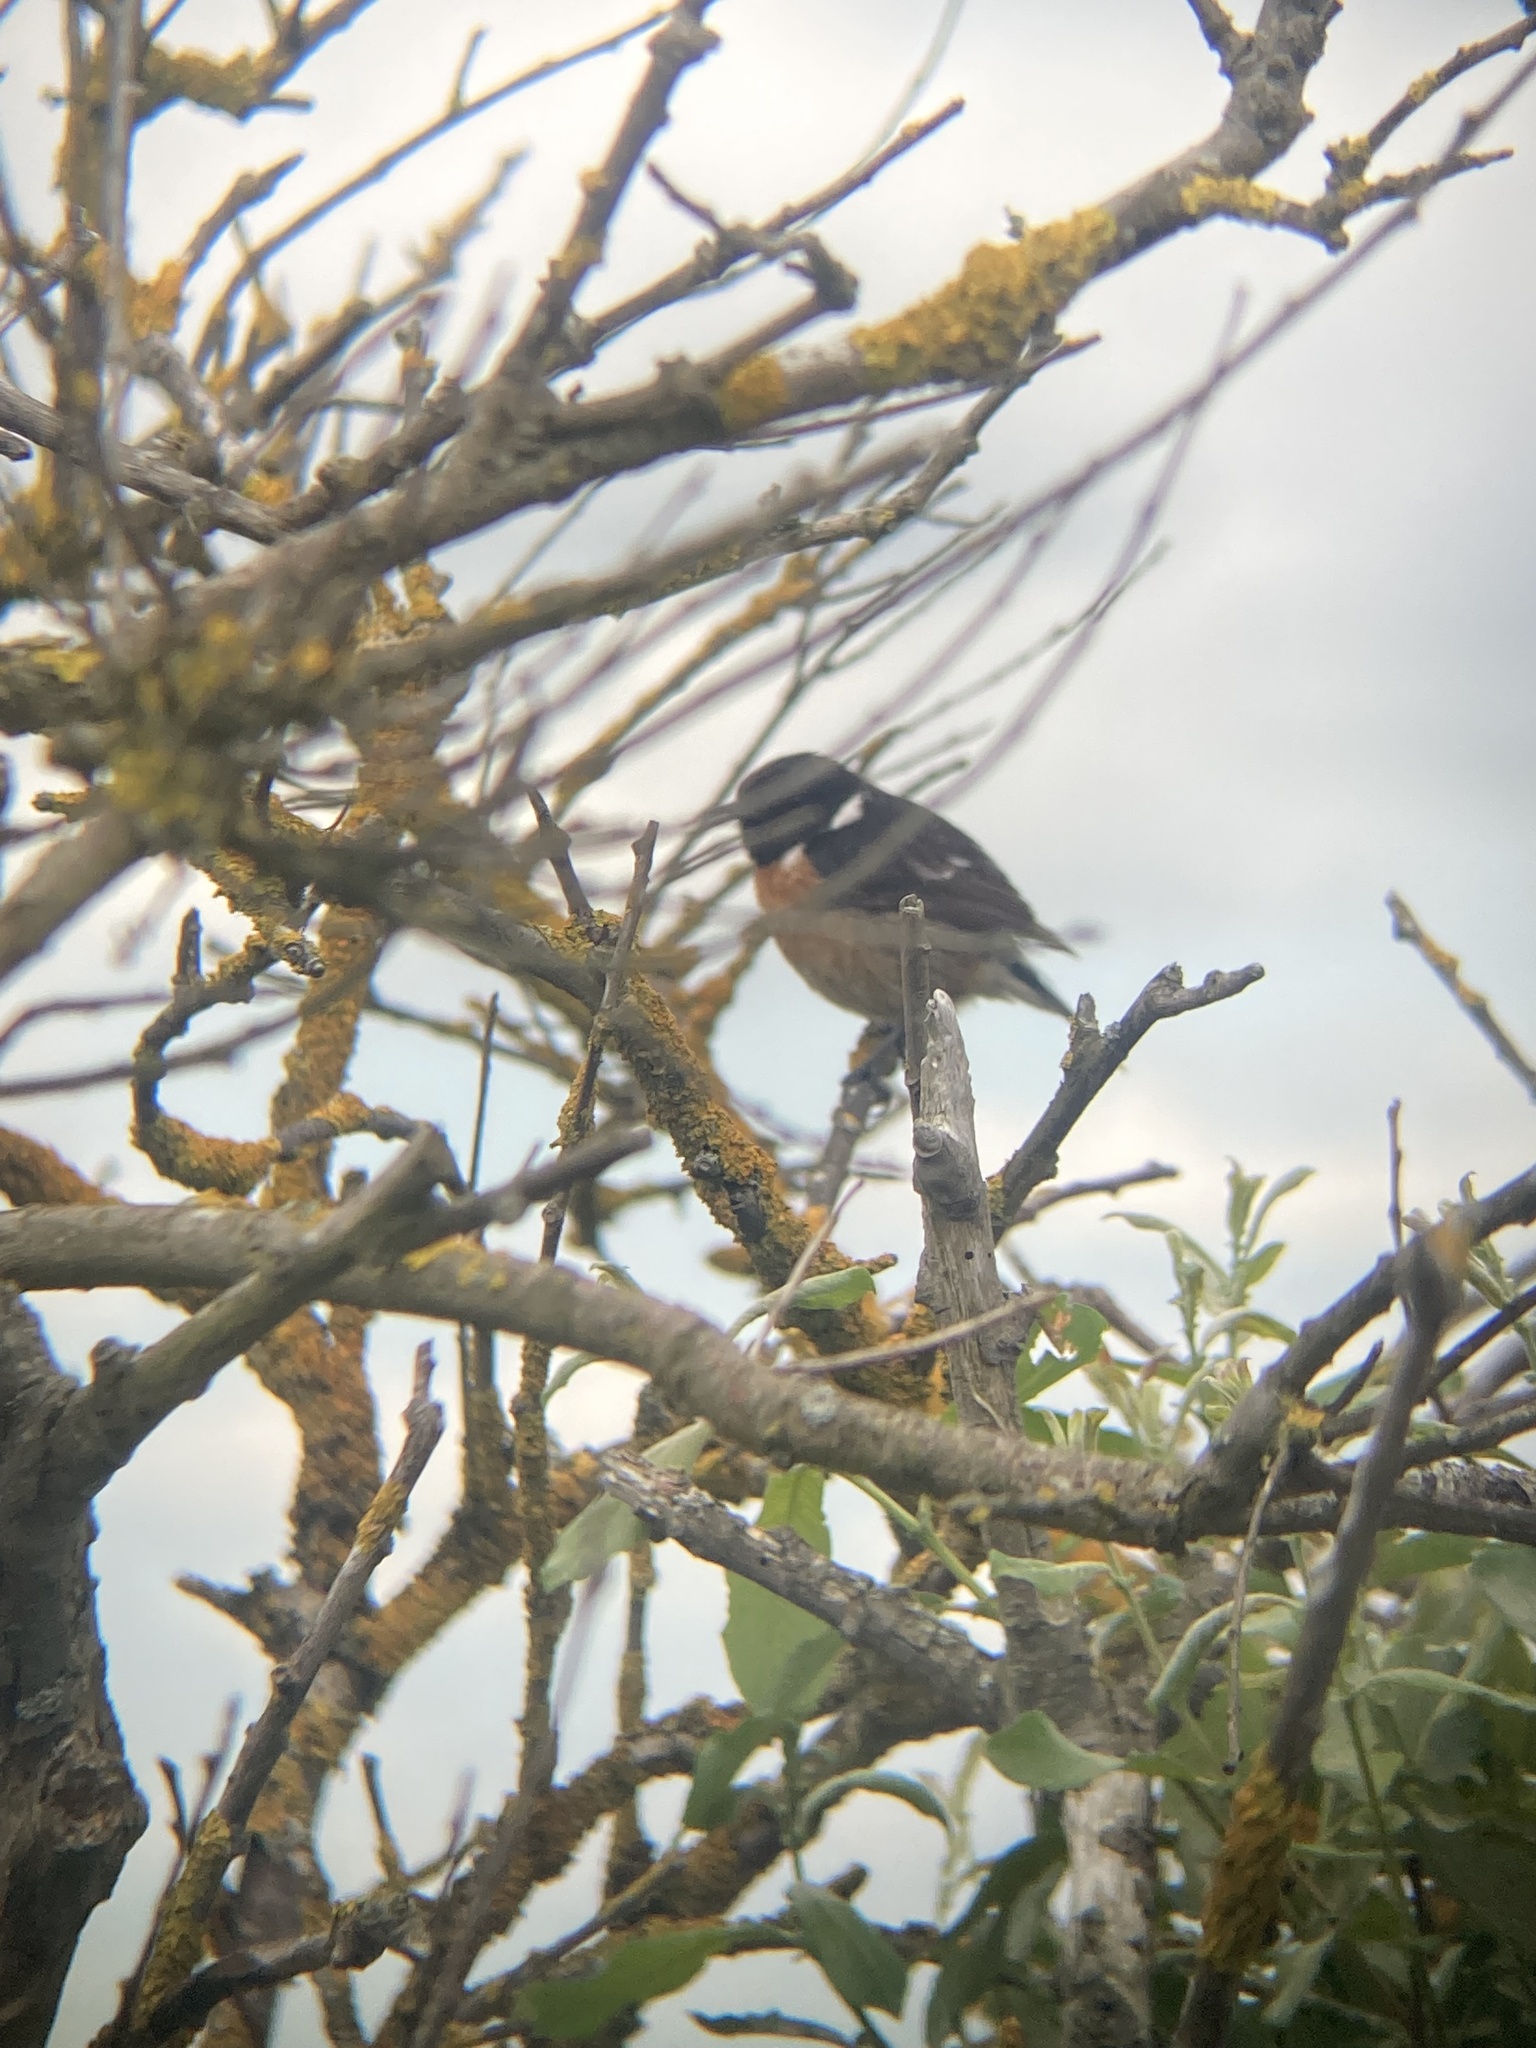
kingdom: Animalia
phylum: Chordata
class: Aves
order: Passeriformes
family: Muscicapidae
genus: Saxicola
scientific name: Saxicola rubicola
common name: European stonechat
